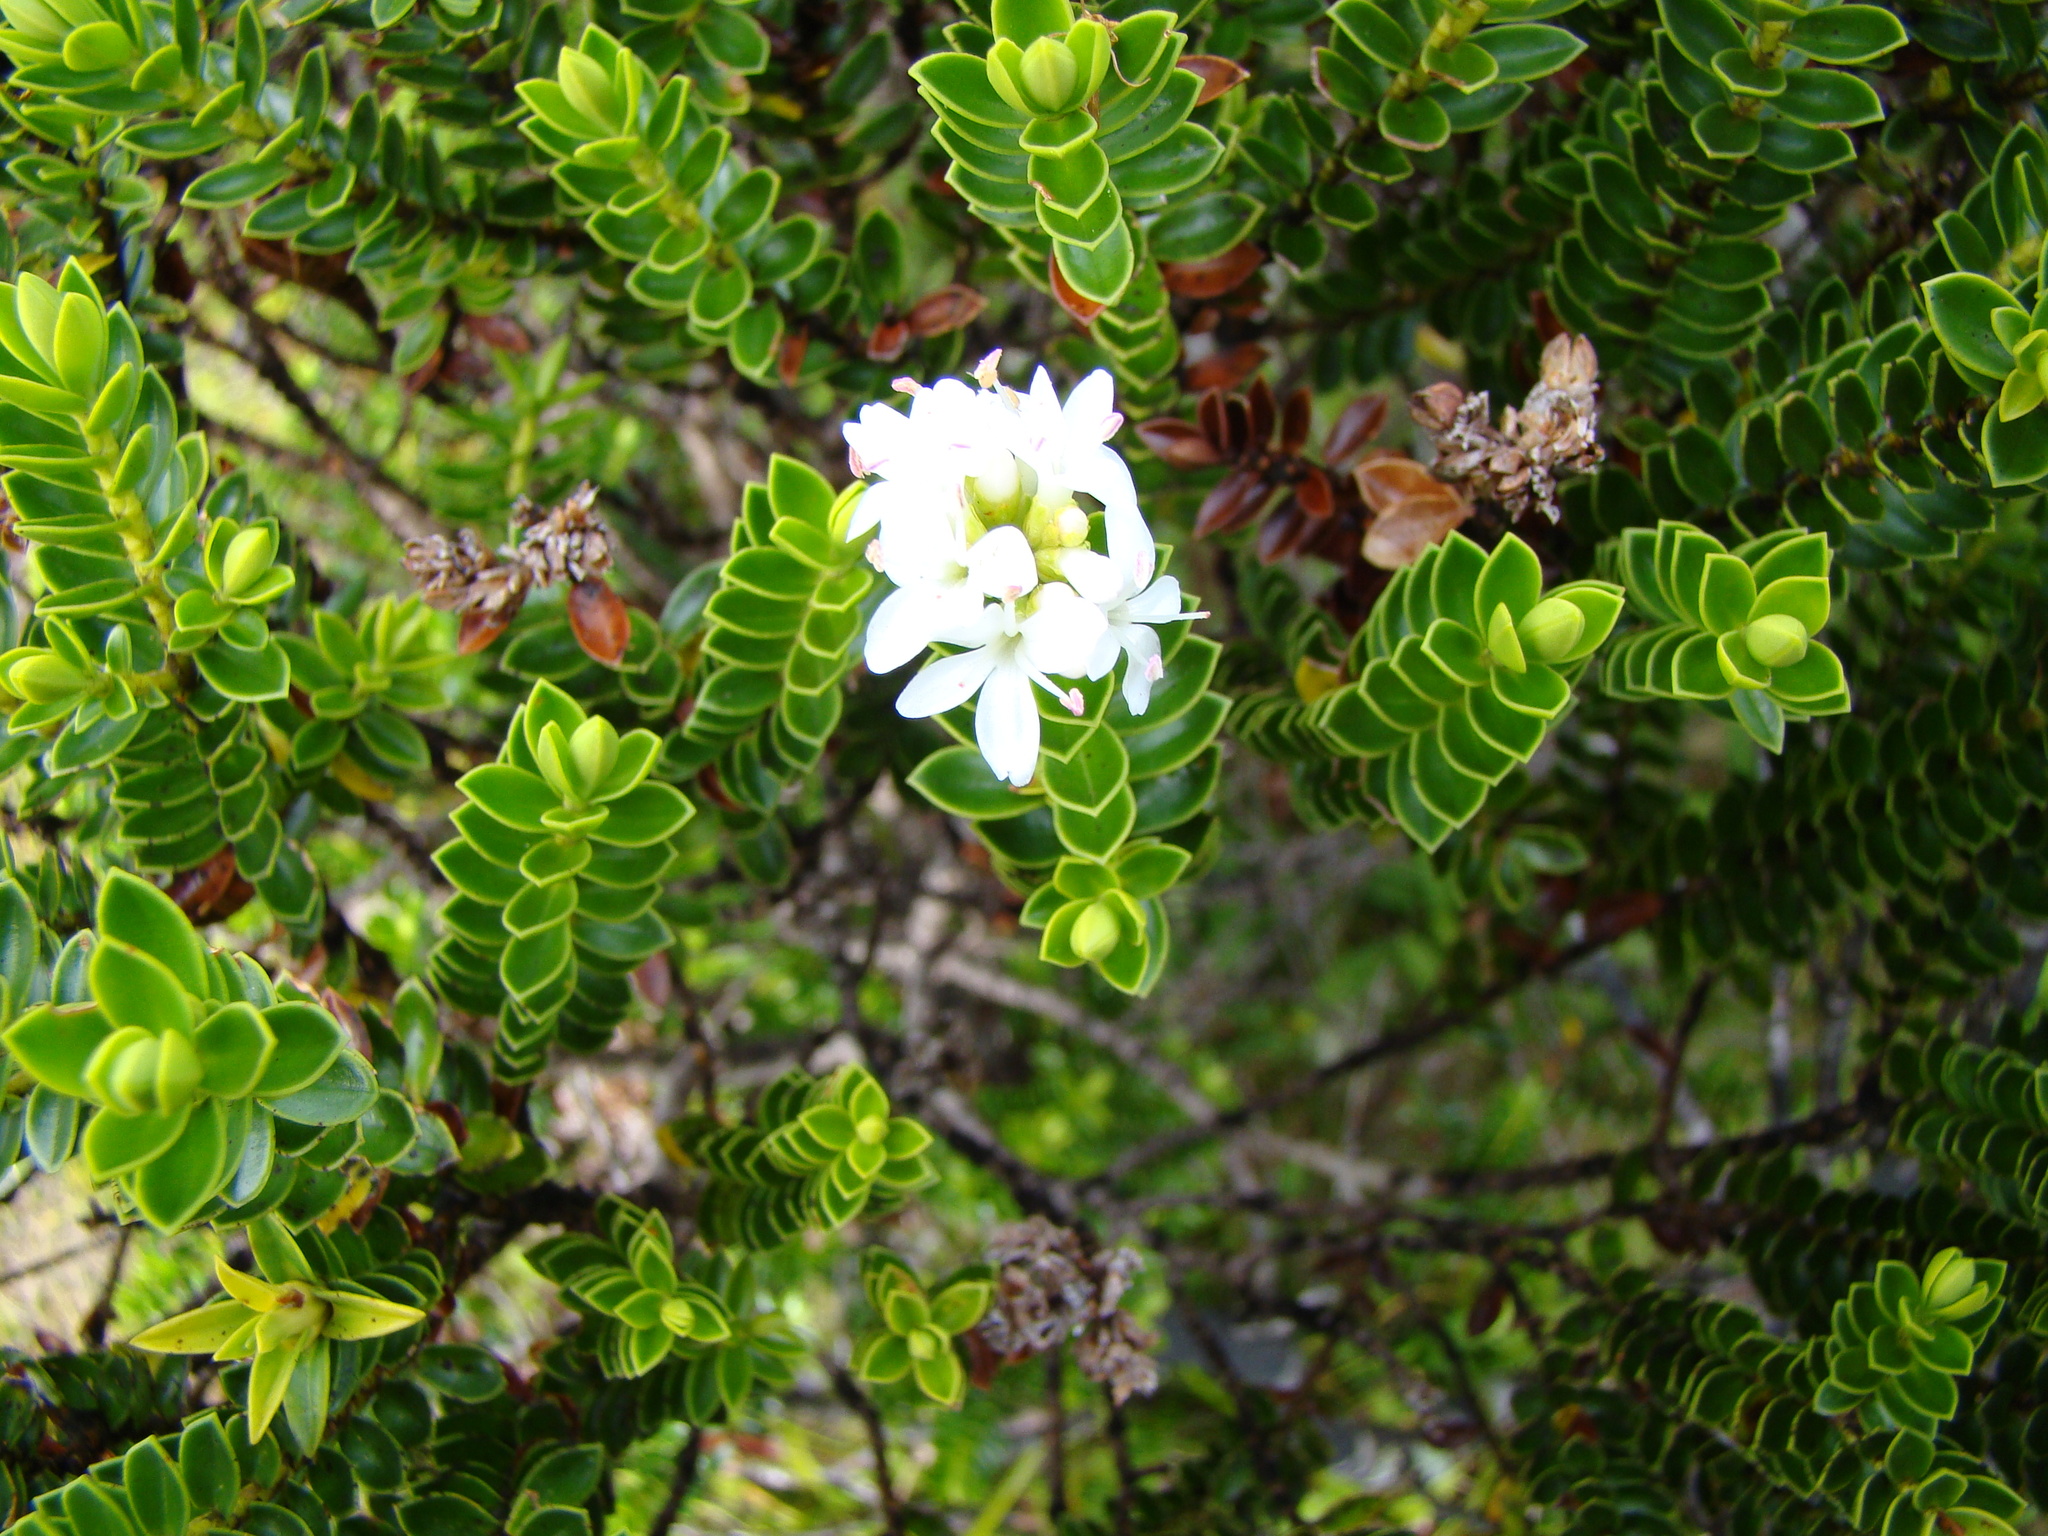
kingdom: Plantae
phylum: Tracheophyta
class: Magnoliopsida
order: Lamiales
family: Plantaginaceae
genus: Veronica
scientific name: Veronica odora
